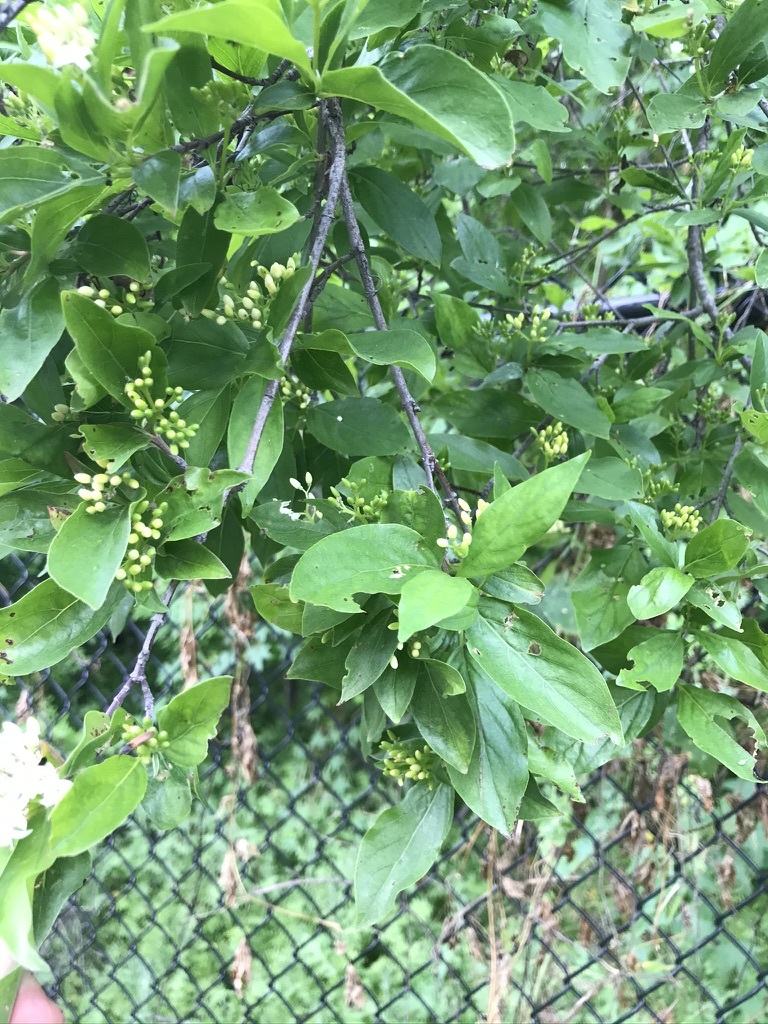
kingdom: Plantae
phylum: Tracheophyta
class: Magnoliopsida
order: Cornales
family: Cornaceae
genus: Cornus
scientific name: Cornus glabrata
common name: Smooth dogwood
